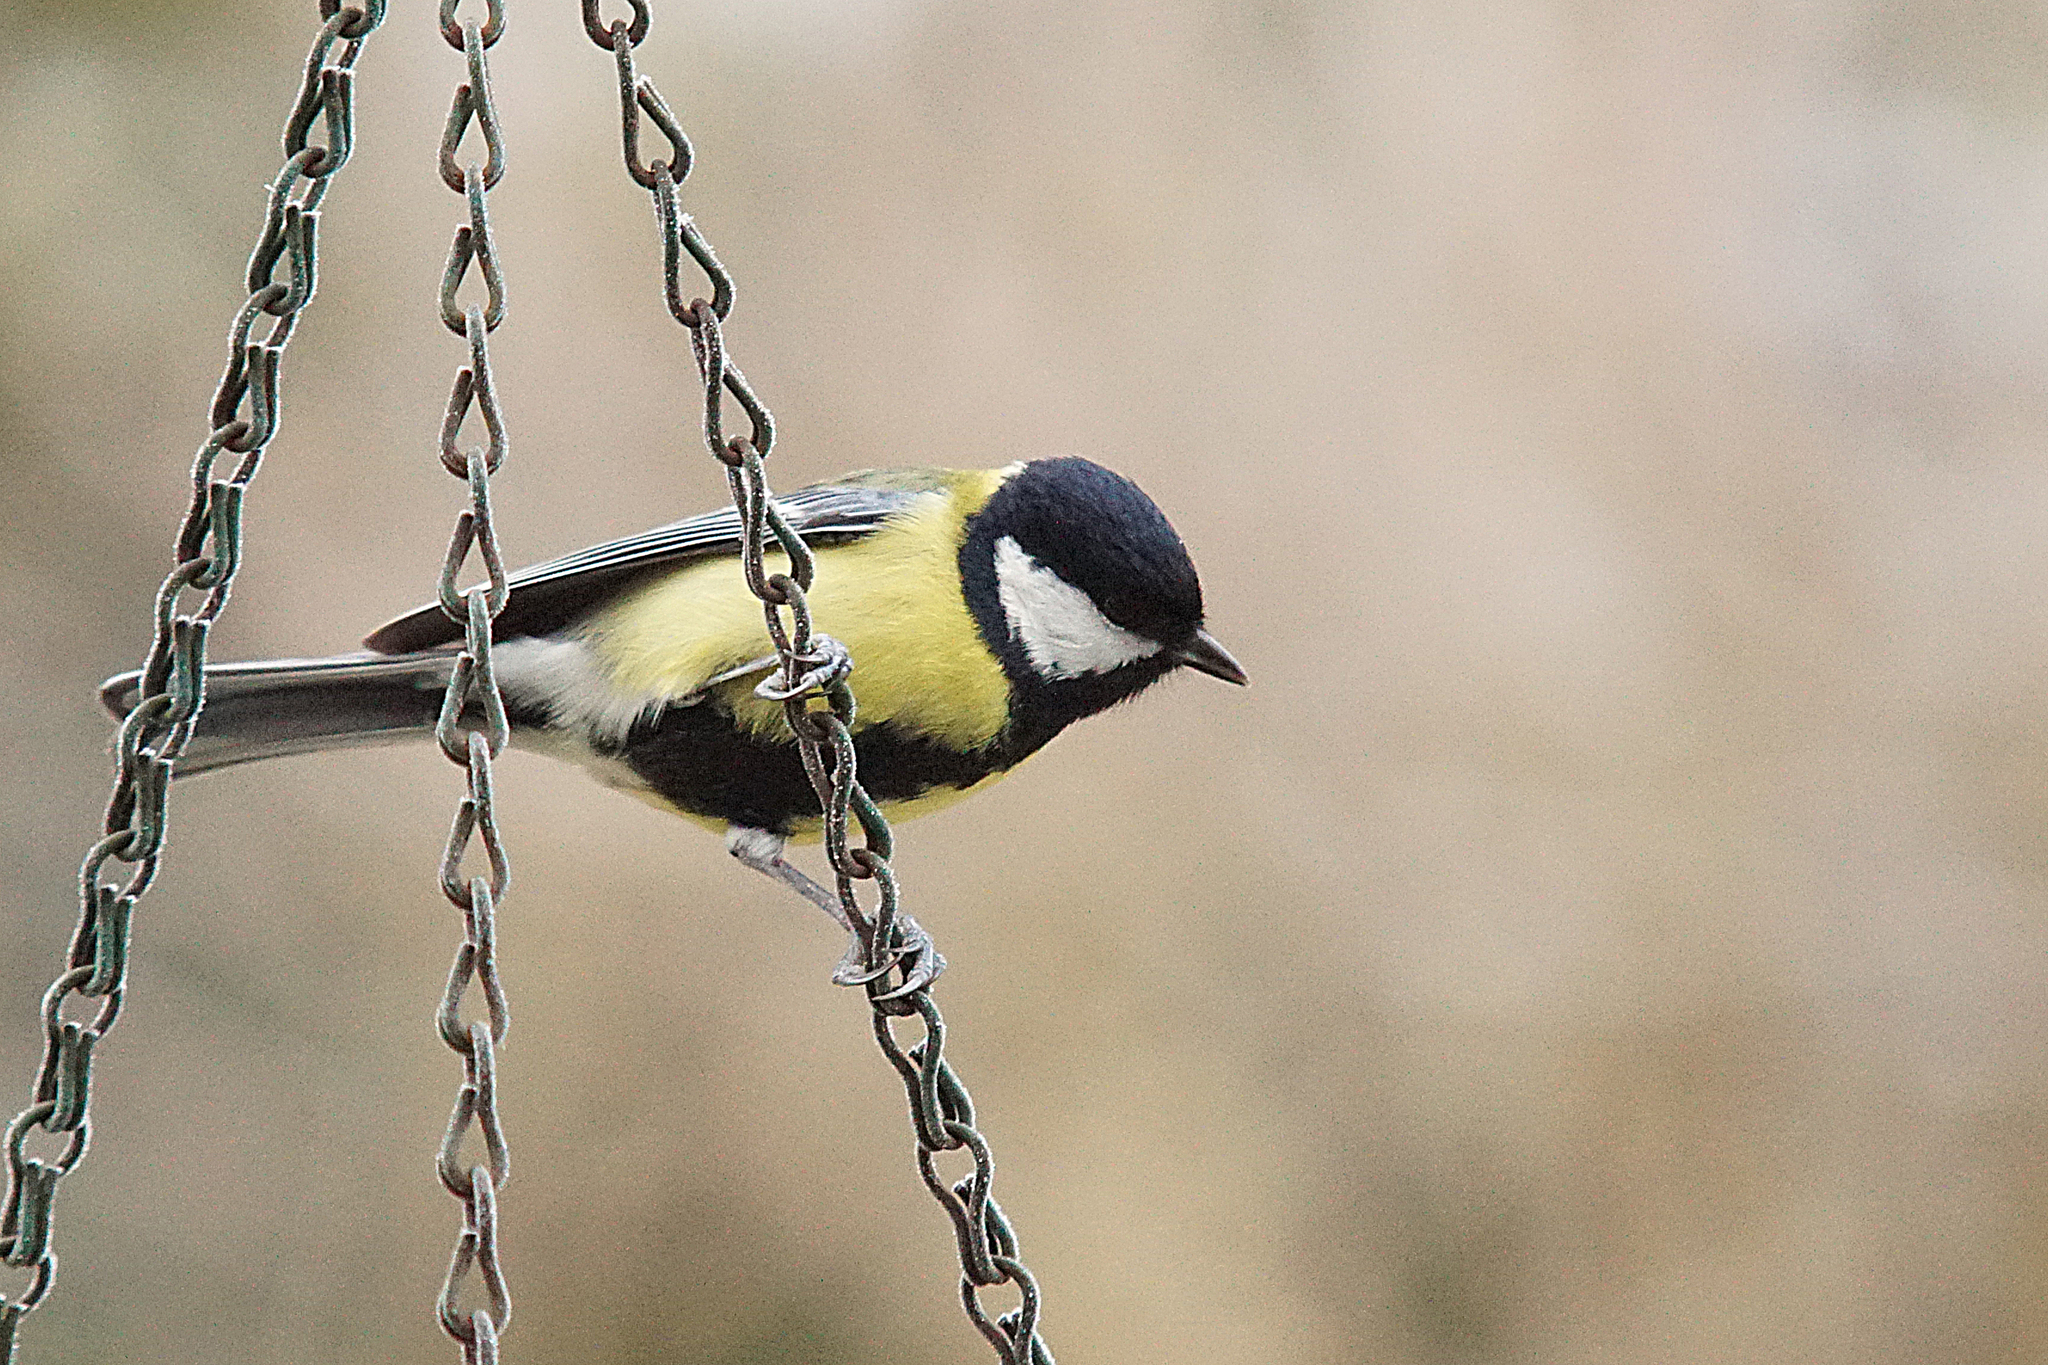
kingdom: Animalia
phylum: Chordata
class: Aves
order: Passeriformes
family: Paridae
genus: Parus
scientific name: Parus major
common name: Great tit
